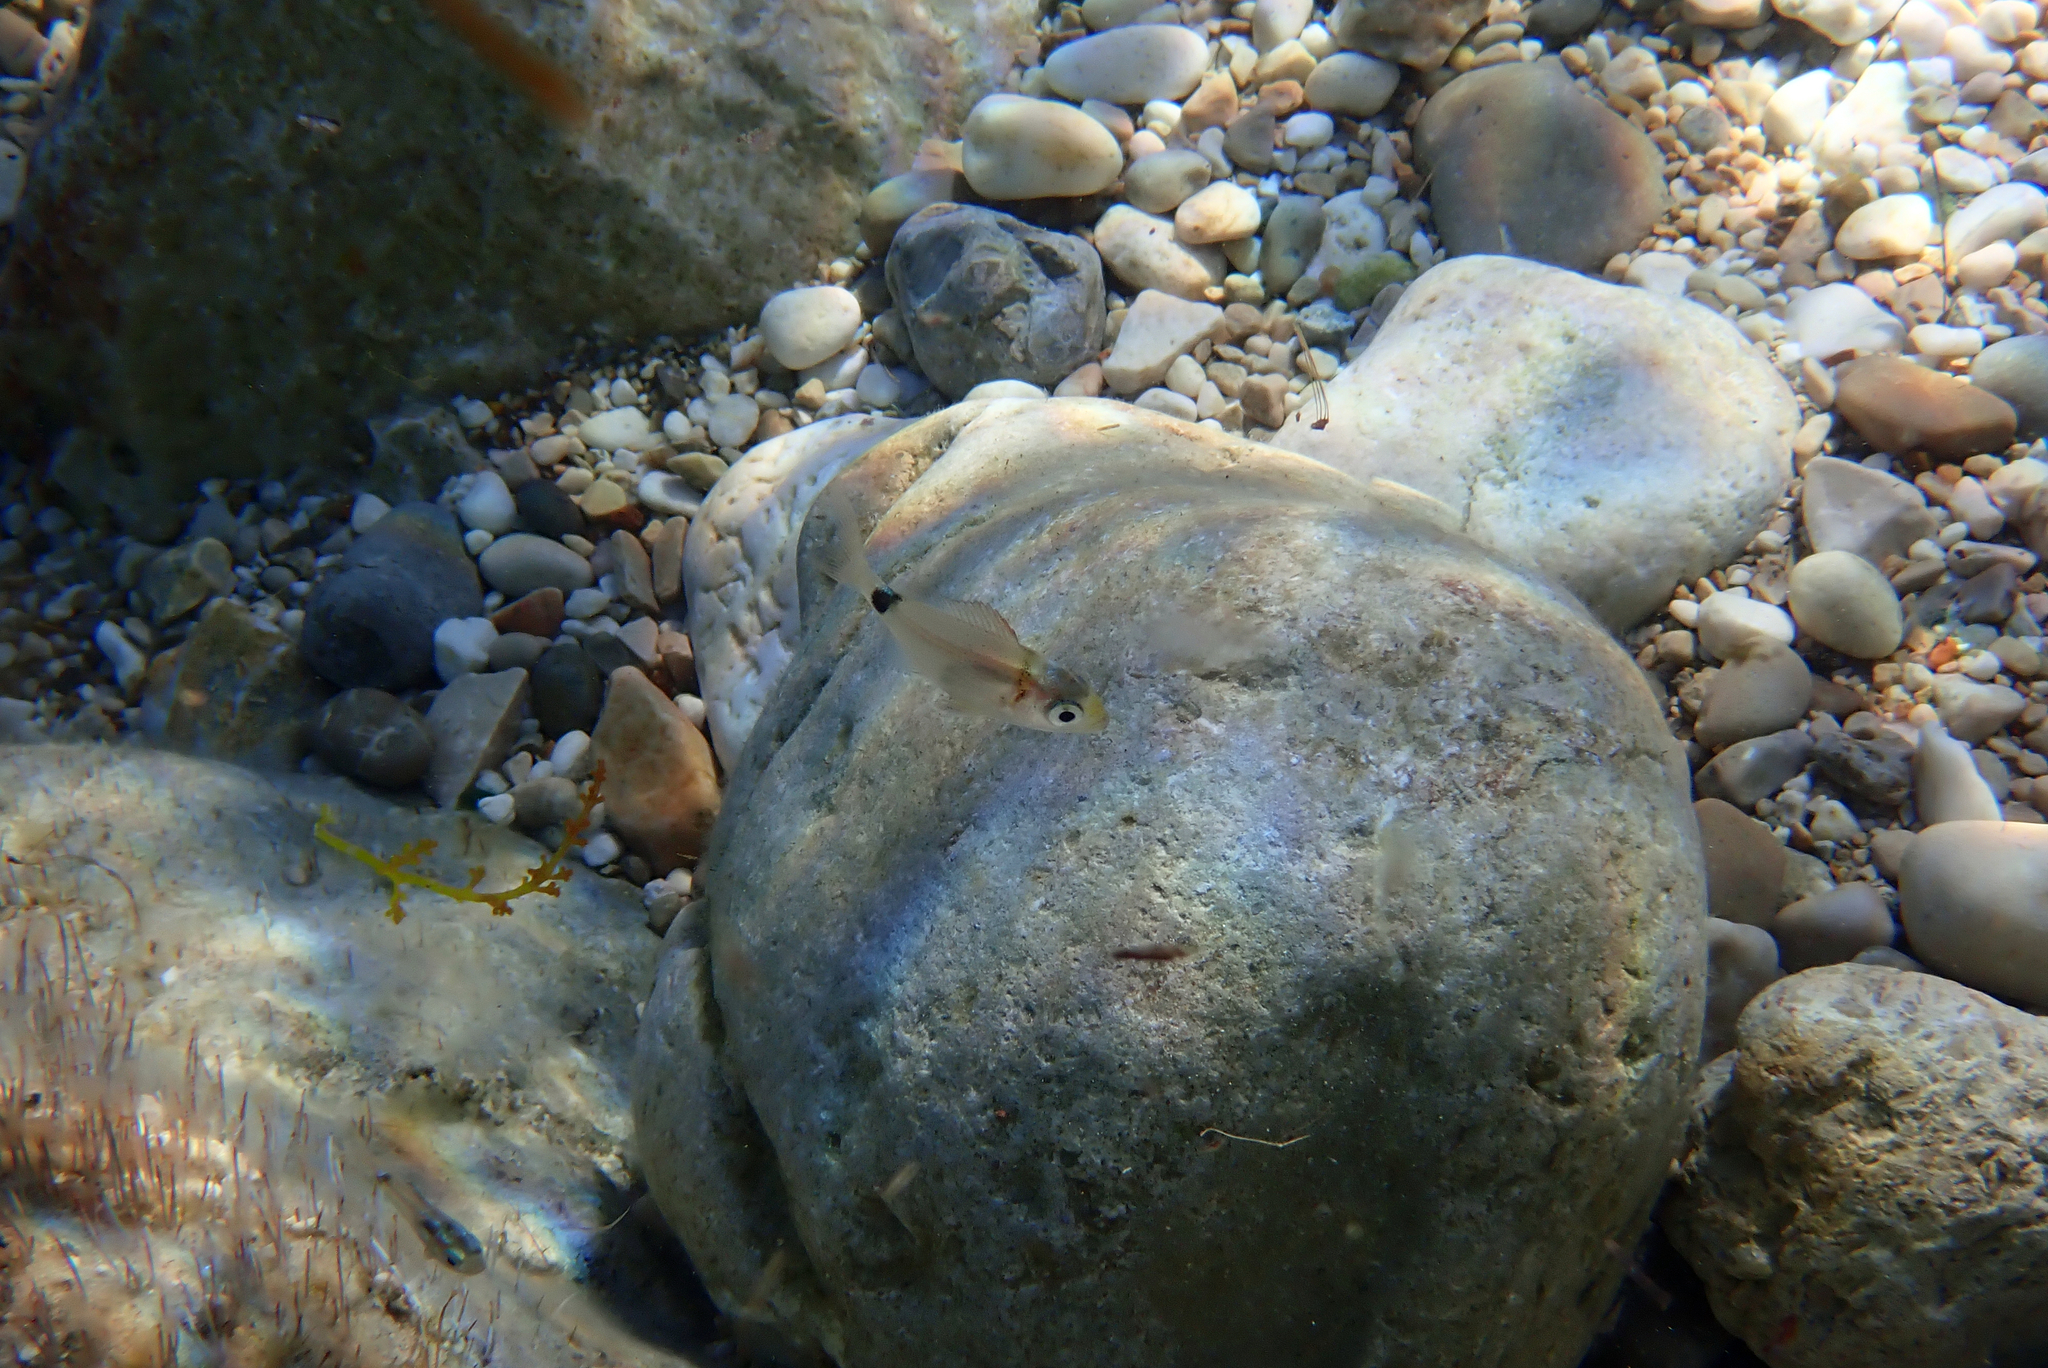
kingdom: Animalia
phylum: Chordata
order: Perciformes
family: Sparidae
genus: Diplodus
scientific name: Diplodus vulgaris
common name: Common two-banded seabream
